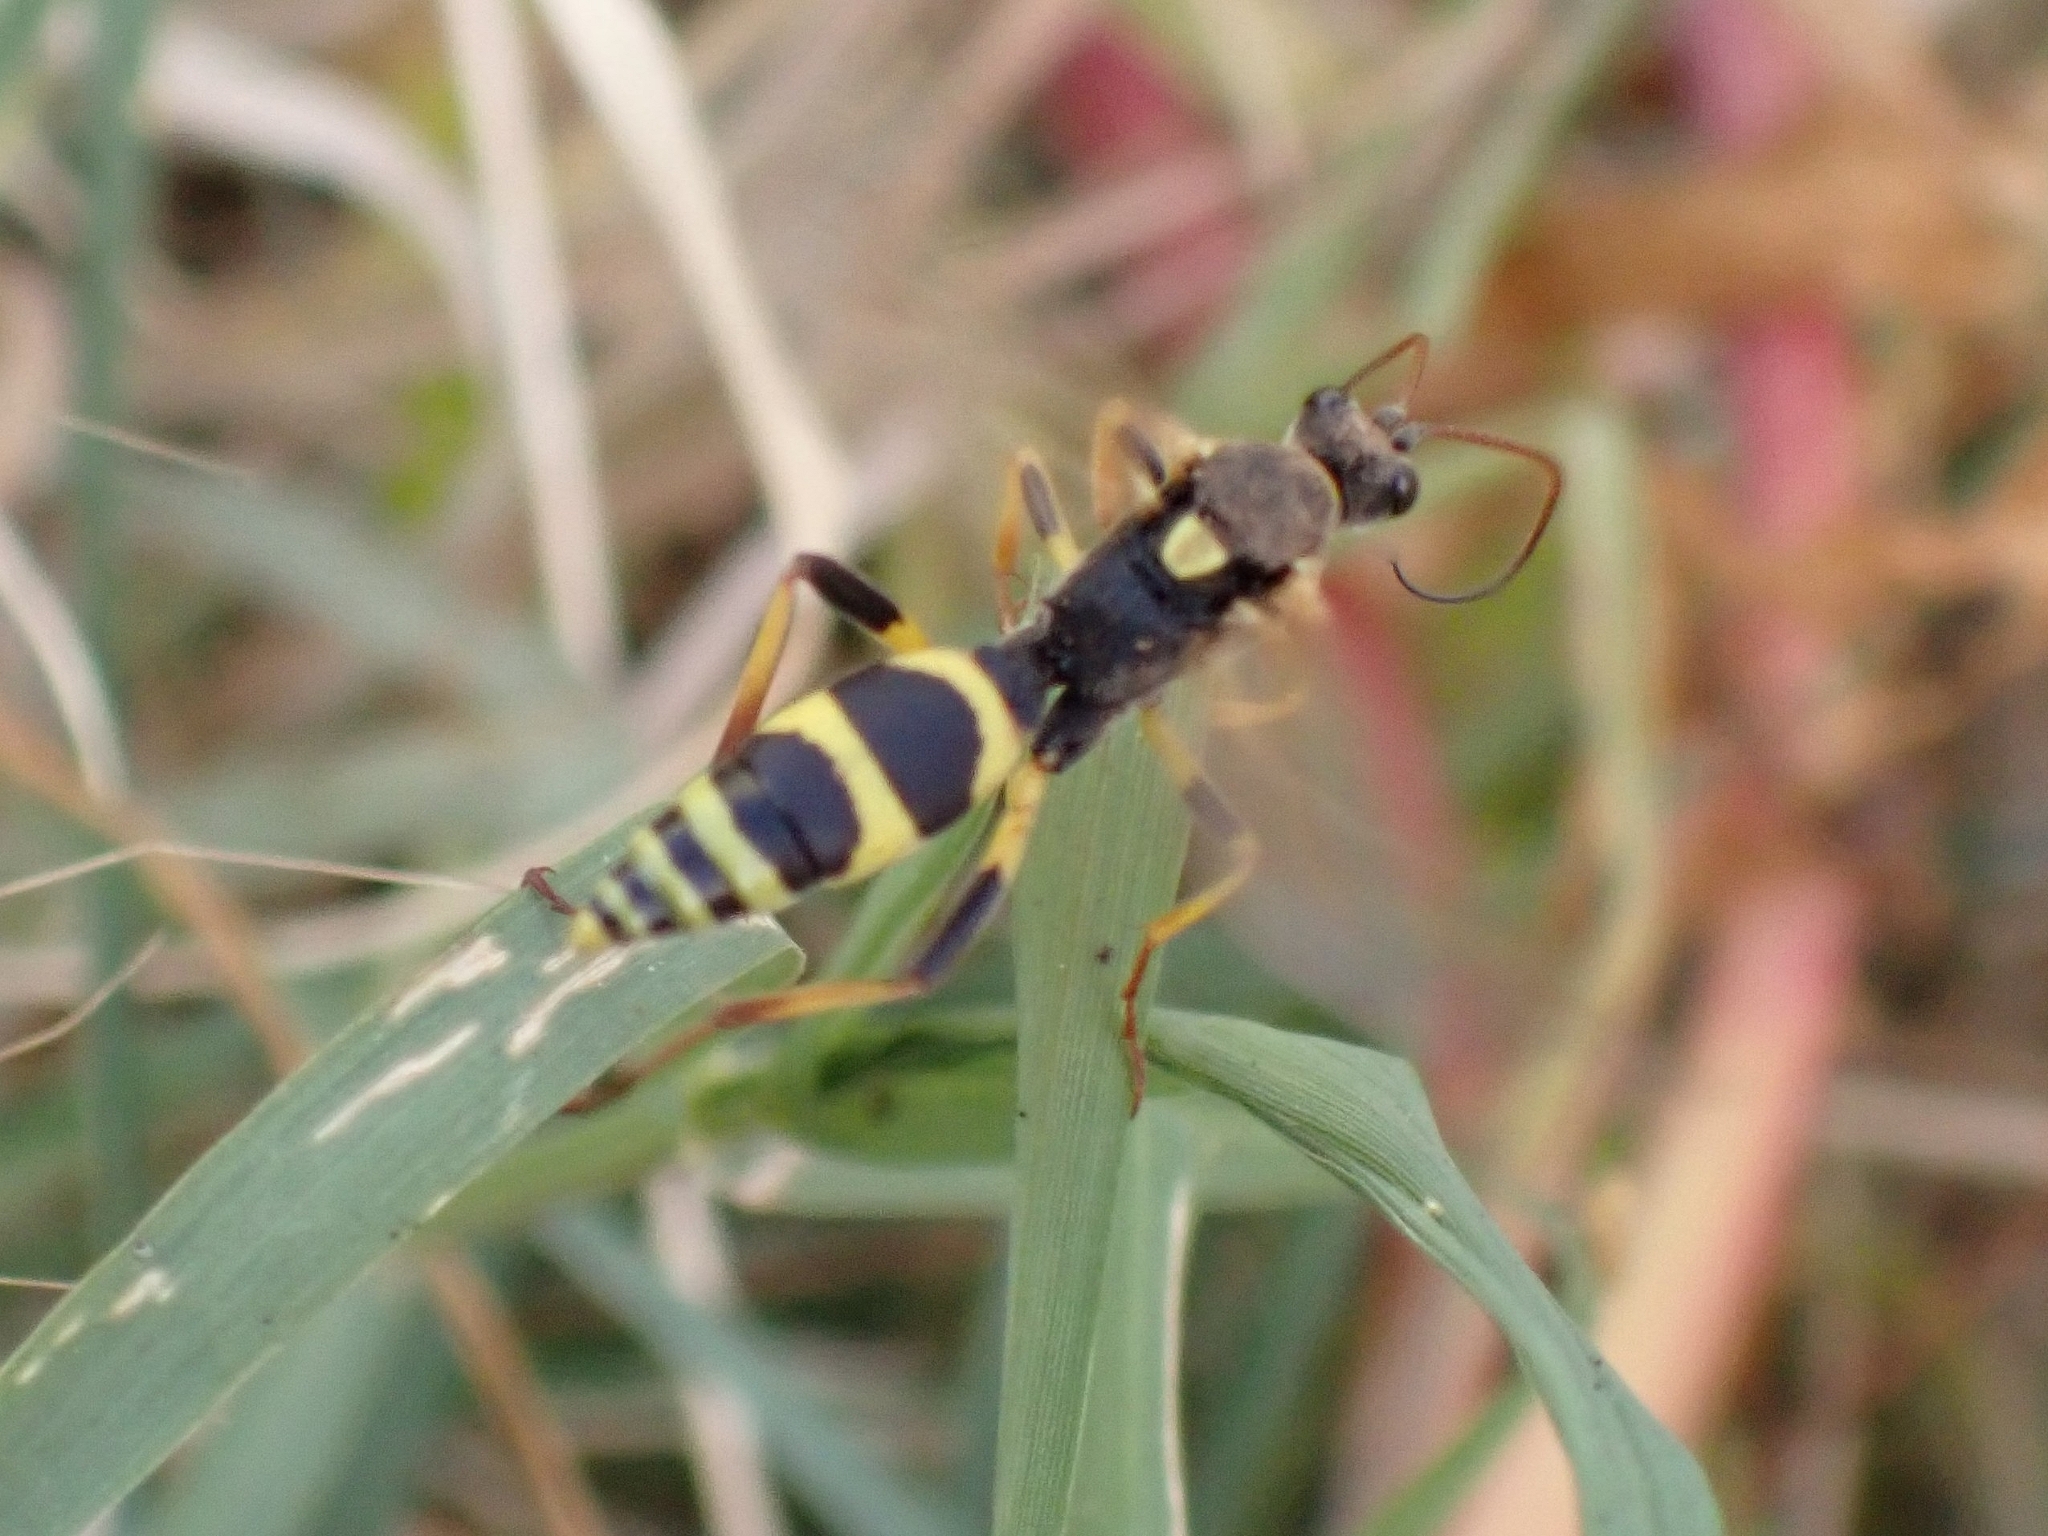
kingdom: Animalia
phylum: Arthropoda
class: Insecta
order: Hymenoptera
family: Ichneumonidae
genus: Amblyteles
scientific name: Amblyteles armatorius
